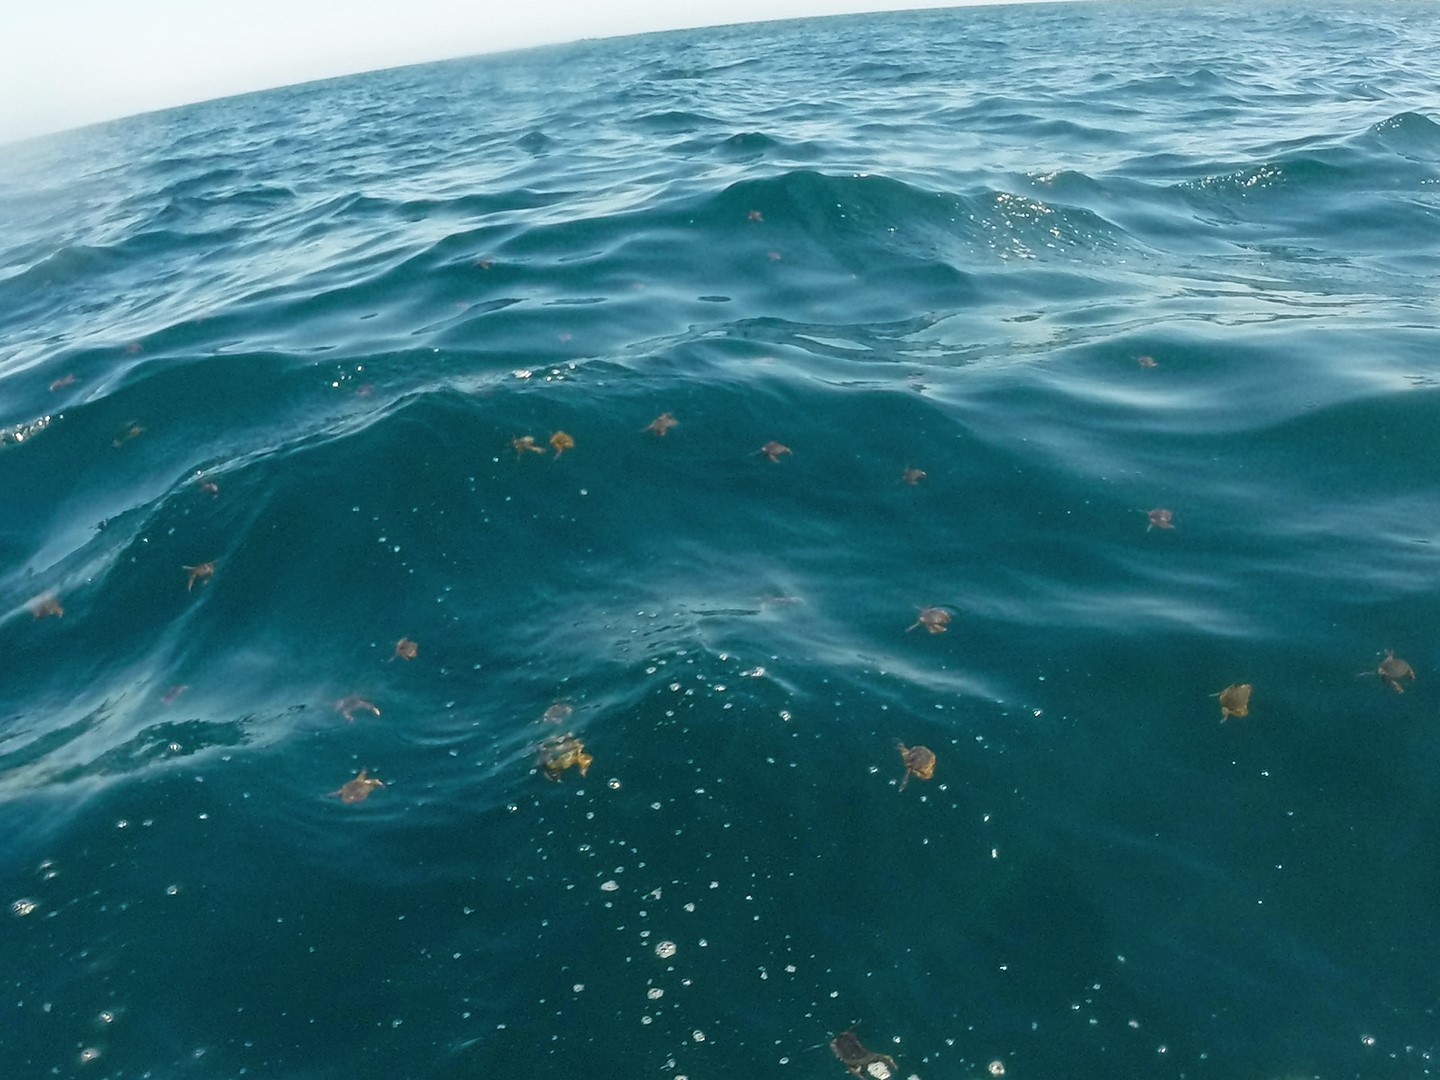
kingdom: Animalia
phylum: Arthropoda
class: Malacostraca
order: Decapoda
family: Polybiidae
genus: Polybius
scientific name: Polybius henslowii
